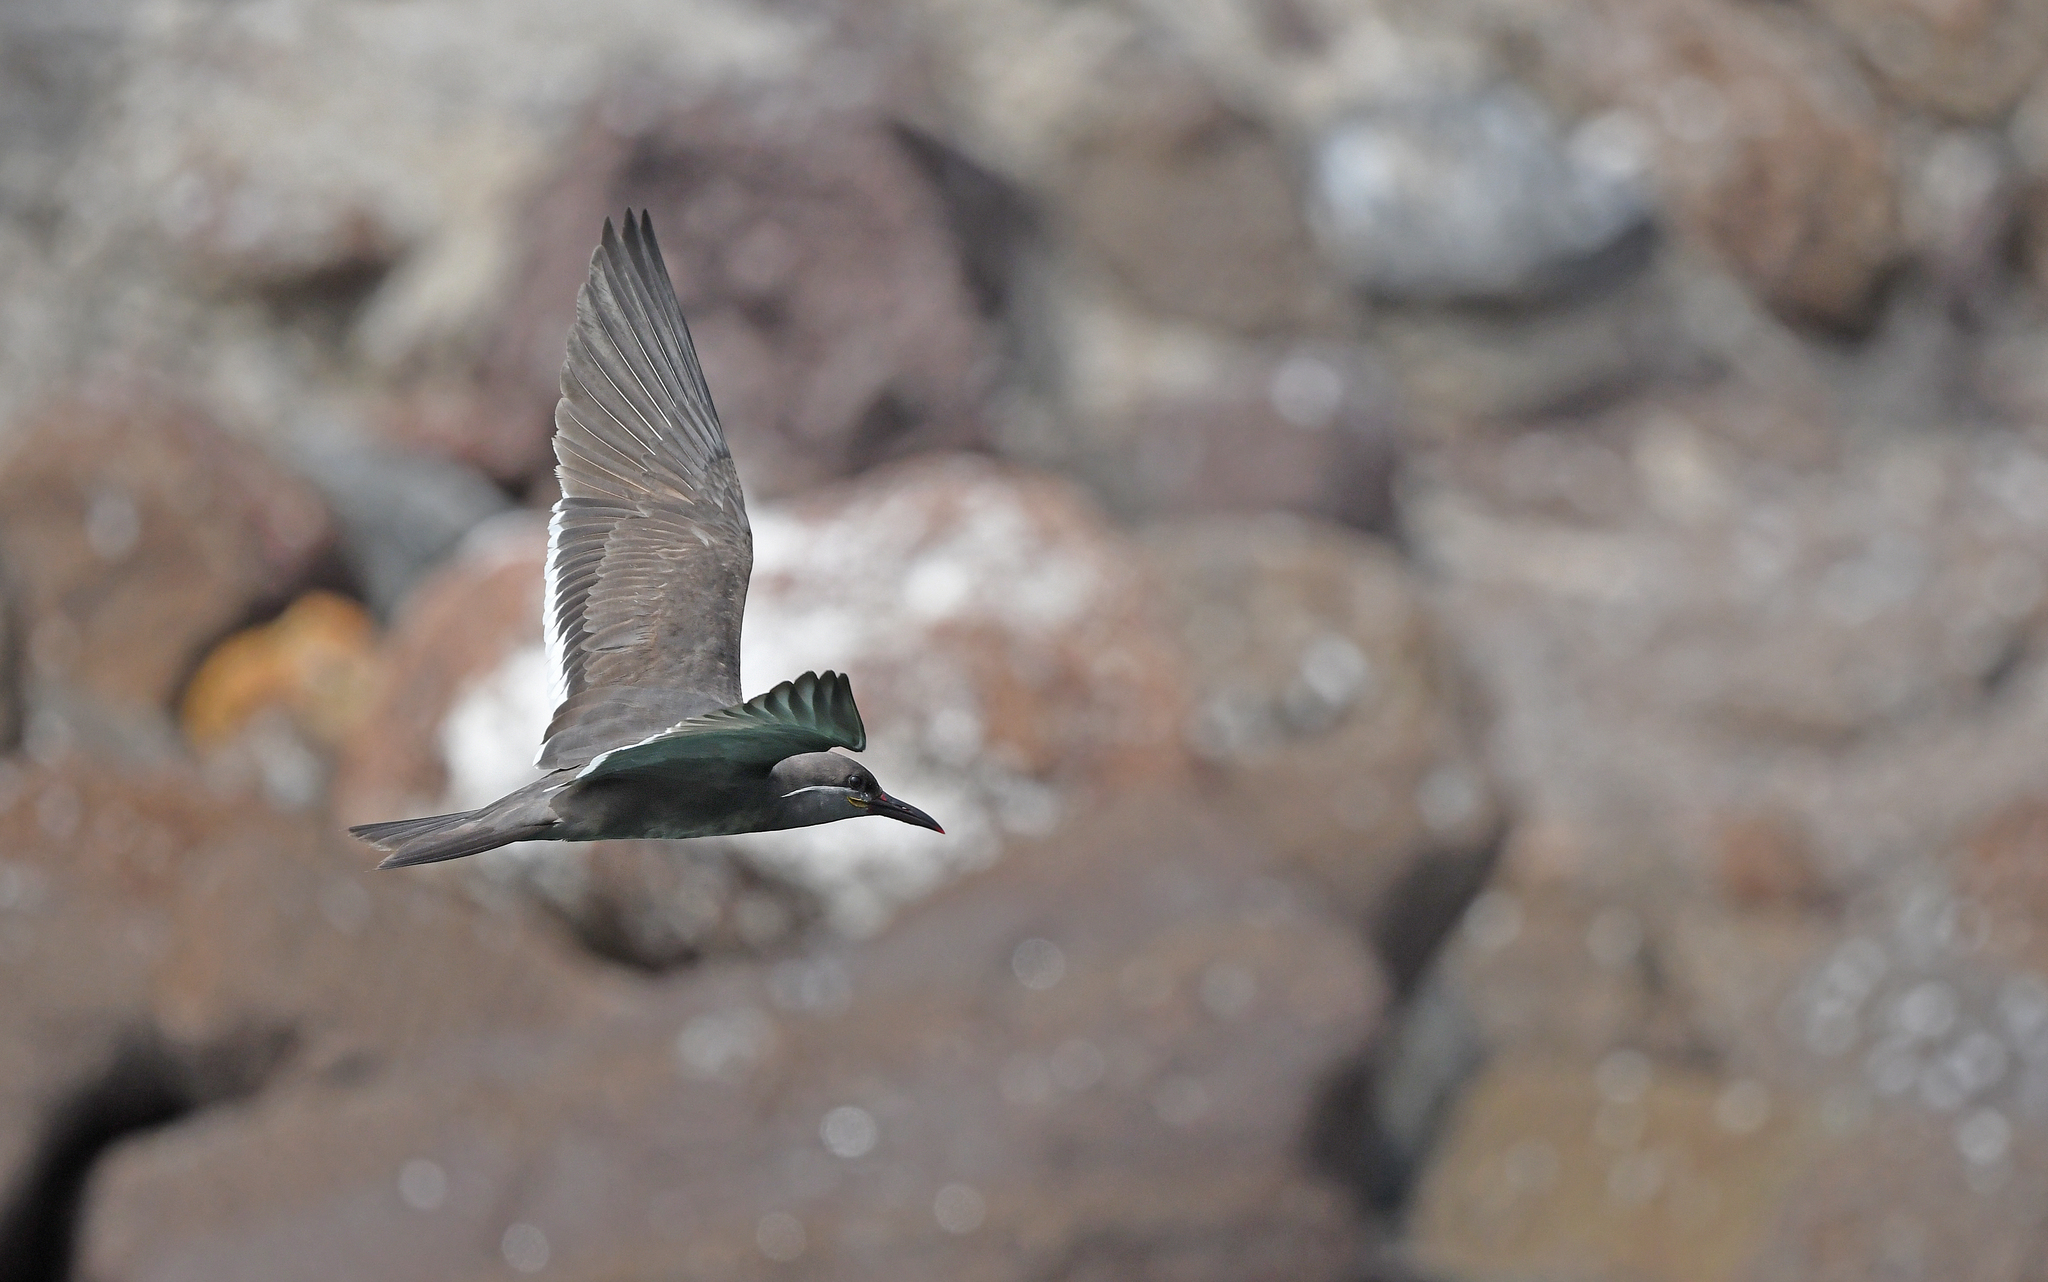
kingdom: Animalia
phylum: Chordata
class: Aves
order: Charadriiformes
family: Laridae
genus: Larosterna
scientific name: Larosterna inca
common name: Inca tern
